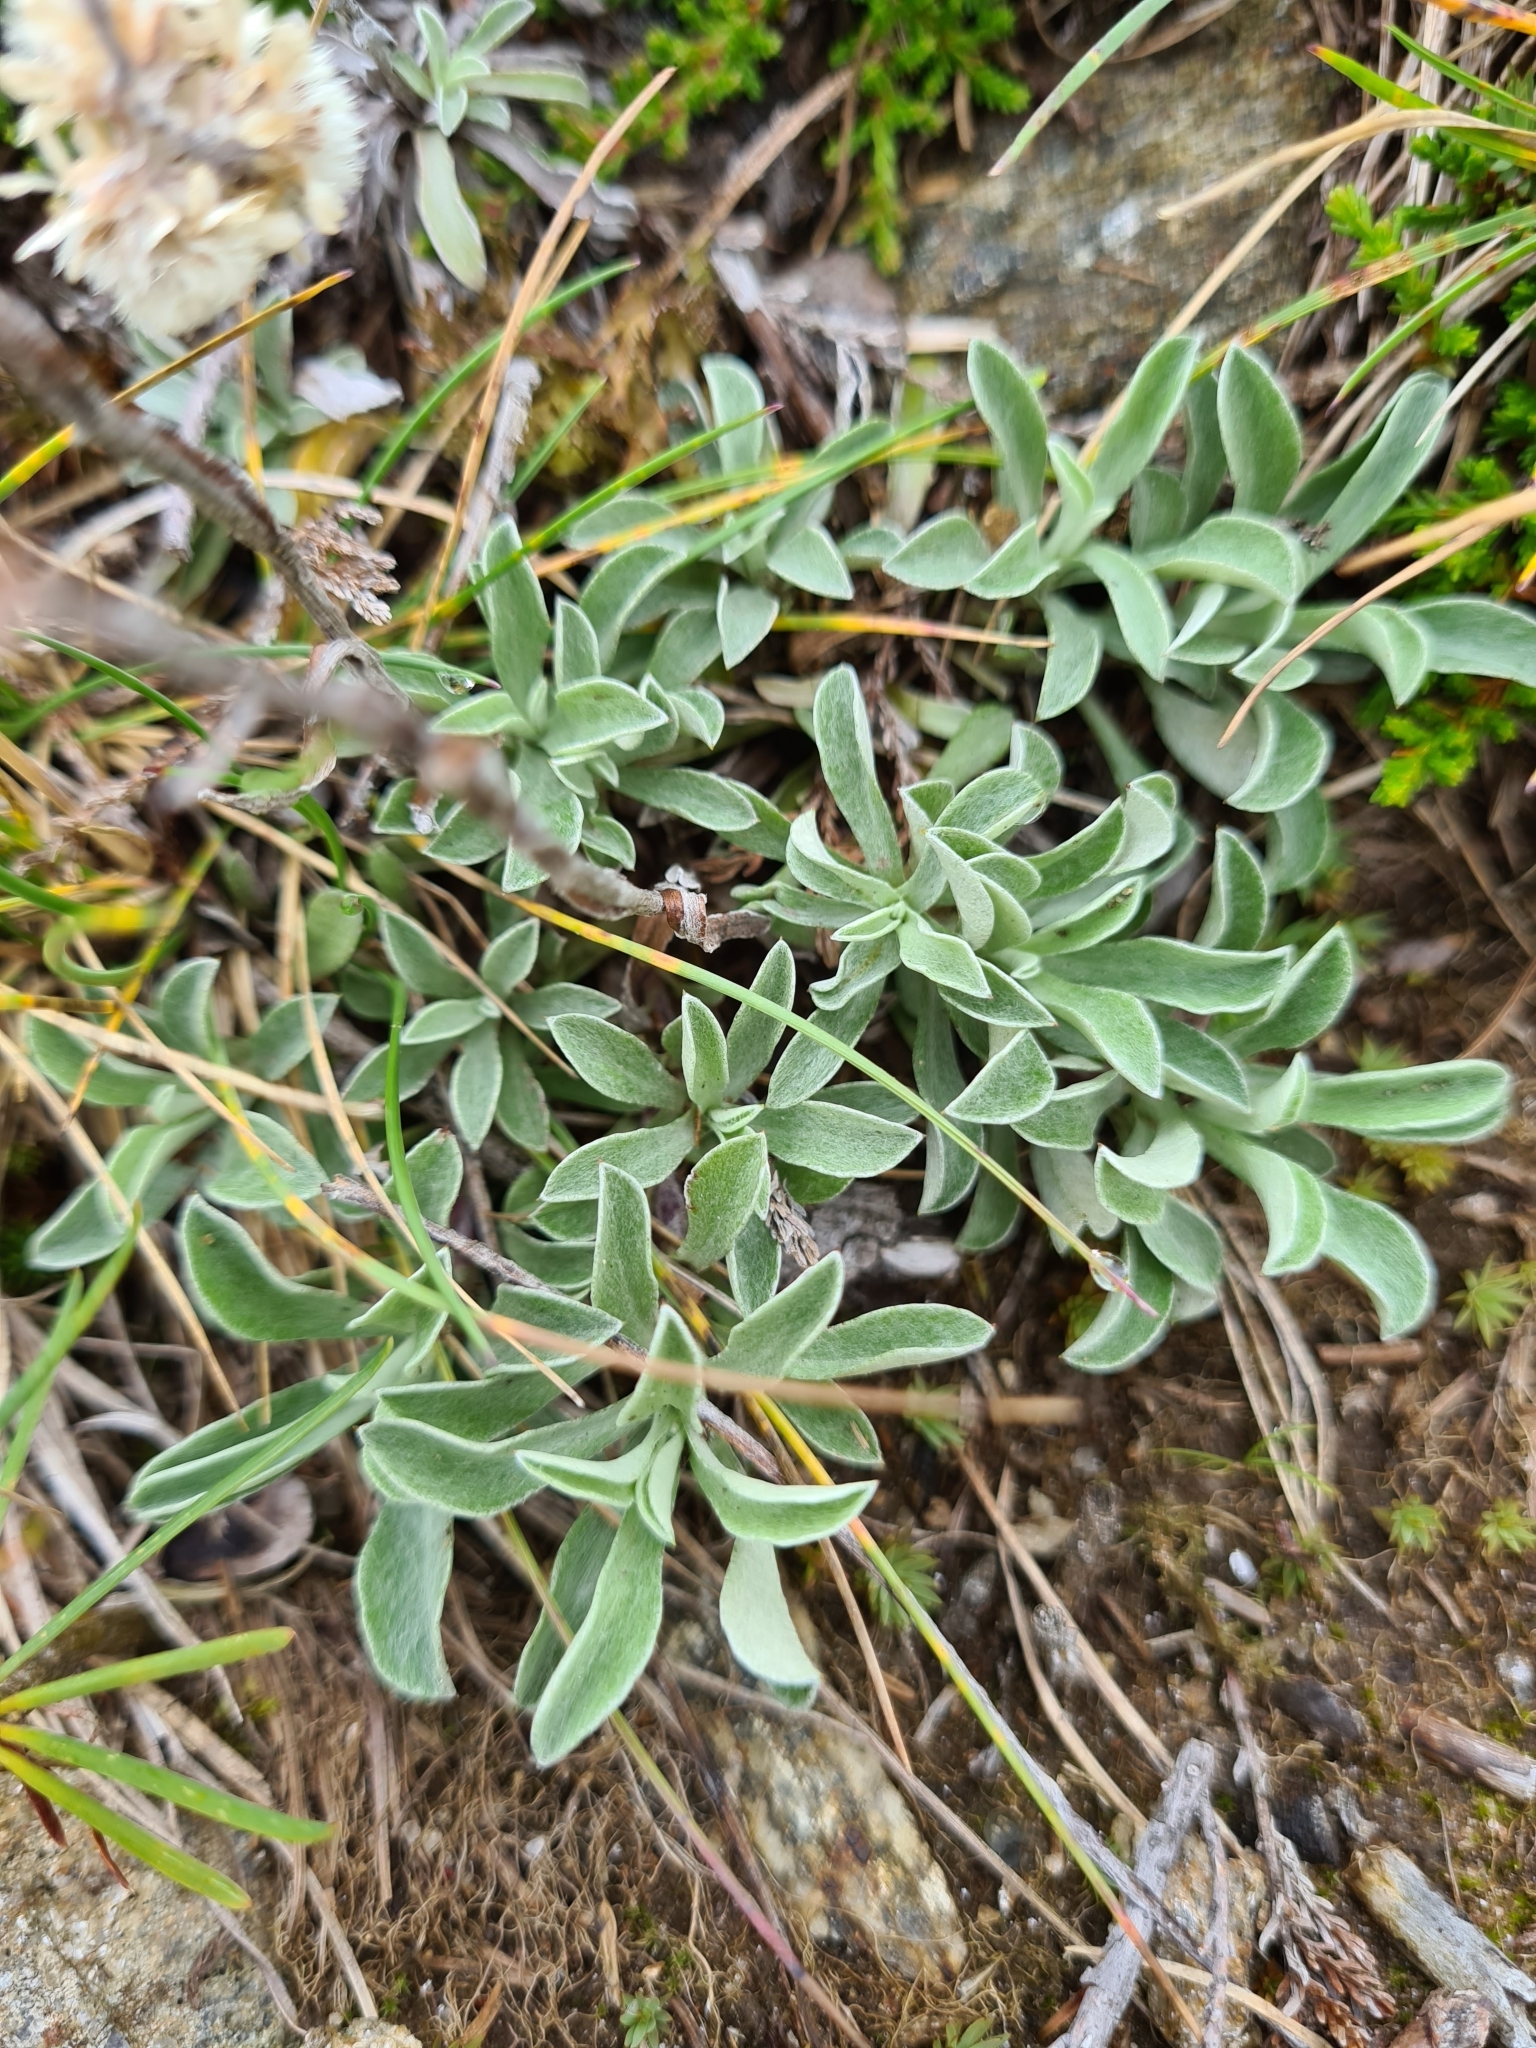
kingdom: Plantae
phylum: Tracheophyta
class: Magnoliopsida
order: Asterales
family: Asteraceae
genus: Antennaria
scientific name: Antennaria dioica
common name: Mountain everlasting
